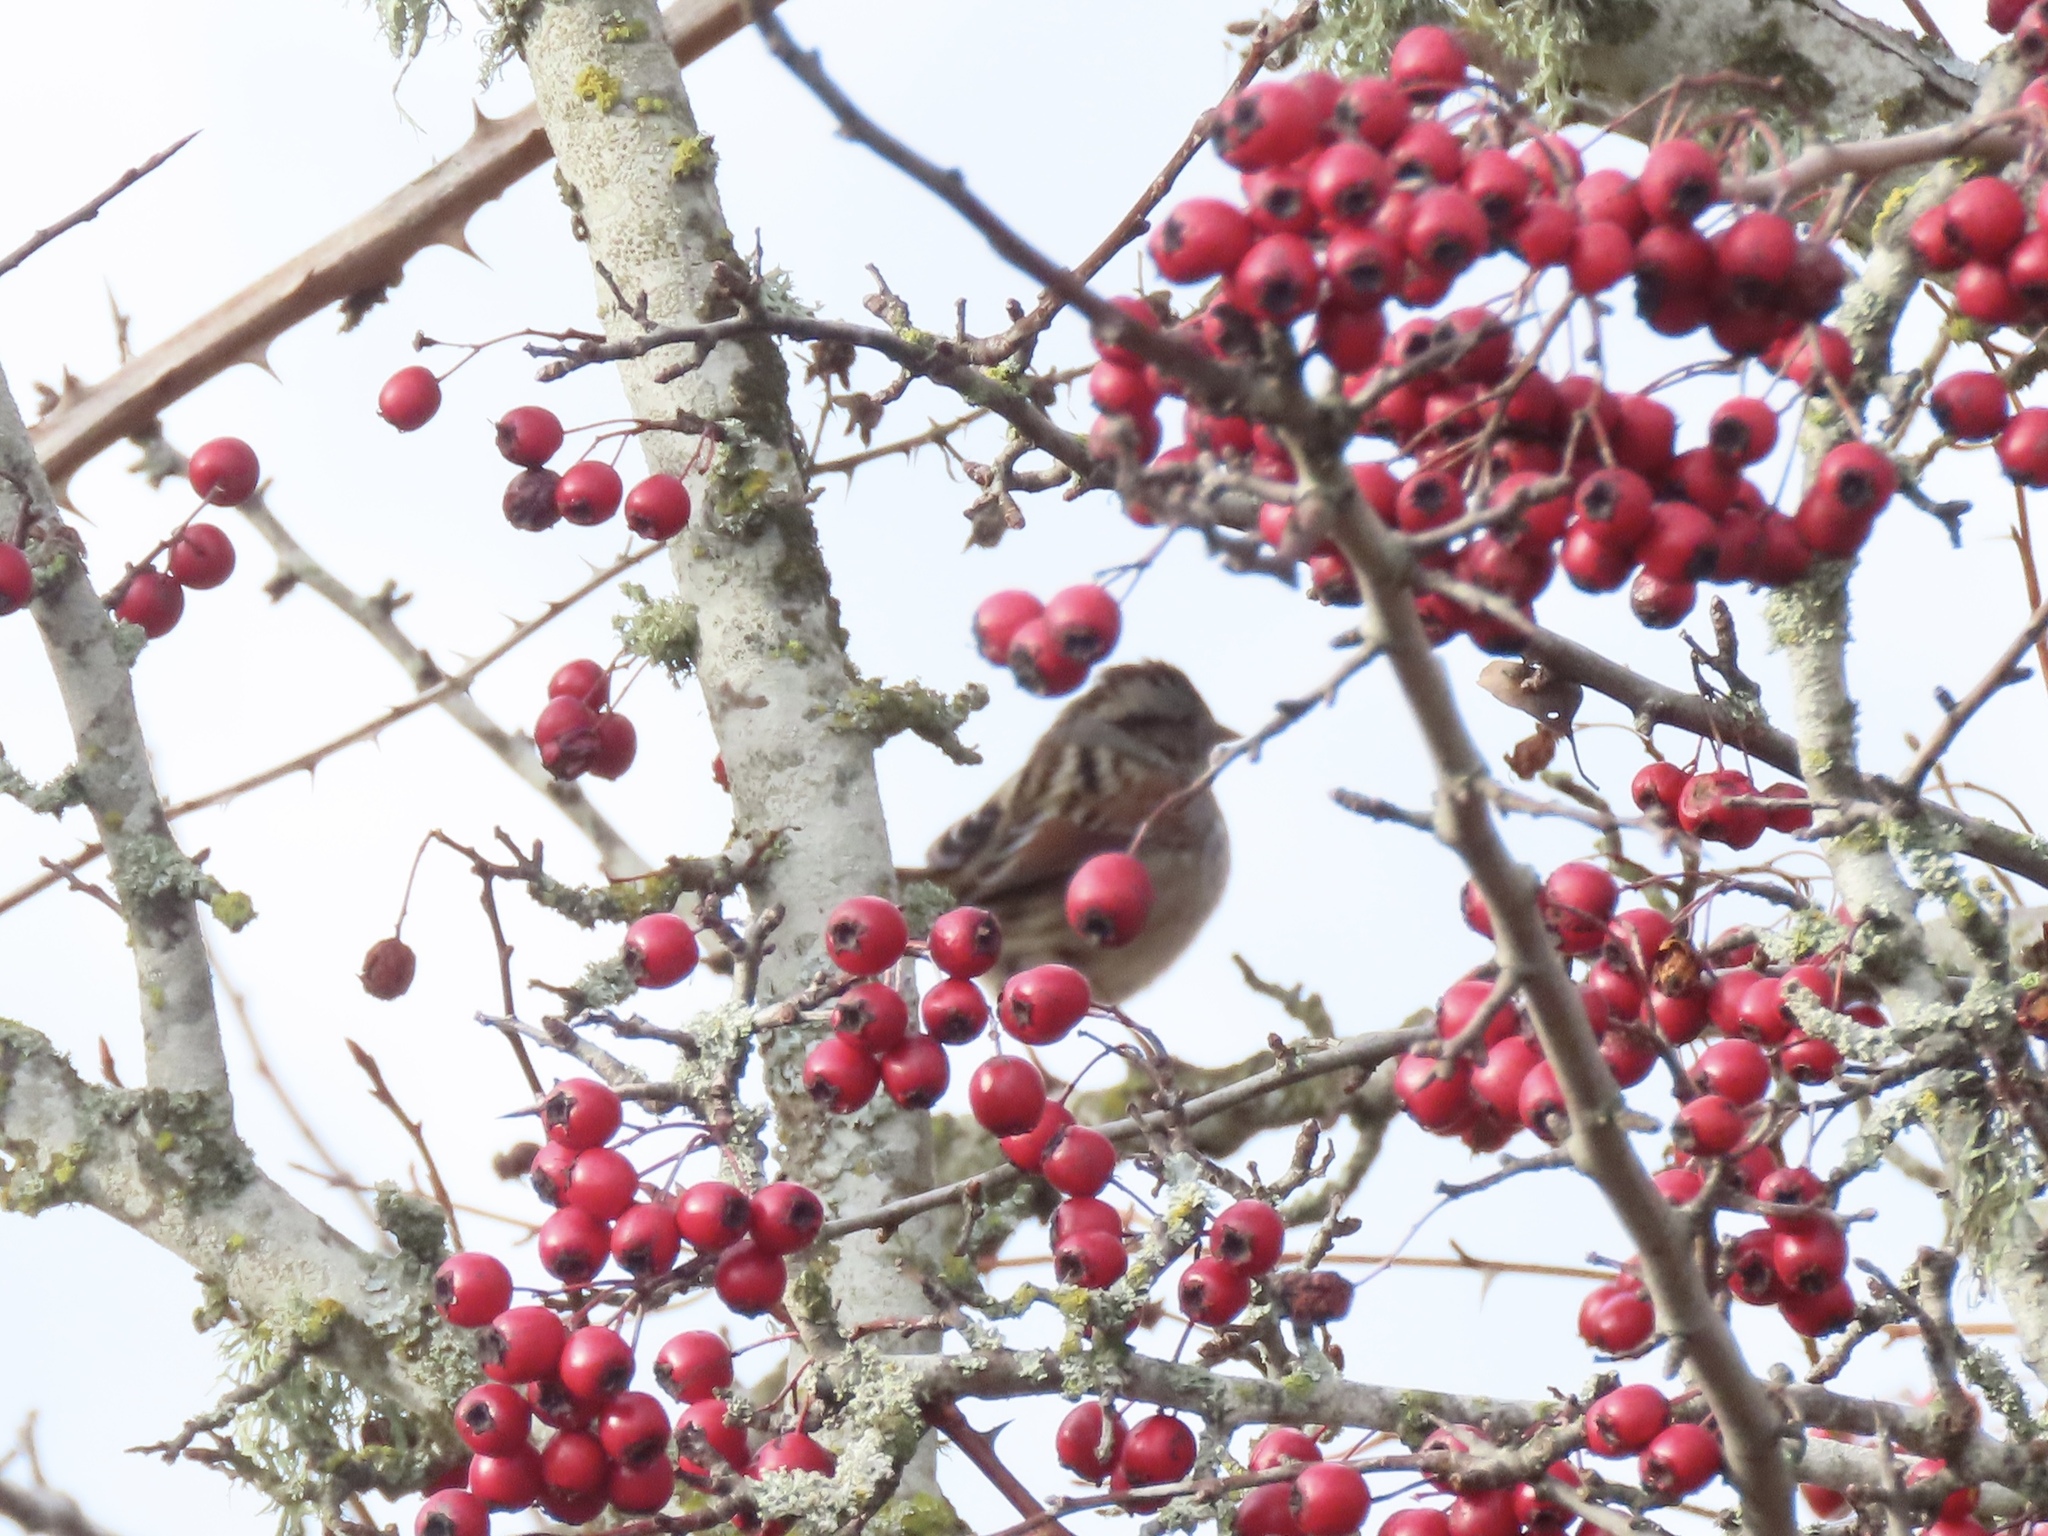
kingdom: Animalia
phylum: Chordata
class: Aves
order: Passeriformes
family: Passerellidae
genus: Melospiza
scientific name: Melospiza georgiana
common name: Swamp sparrow
